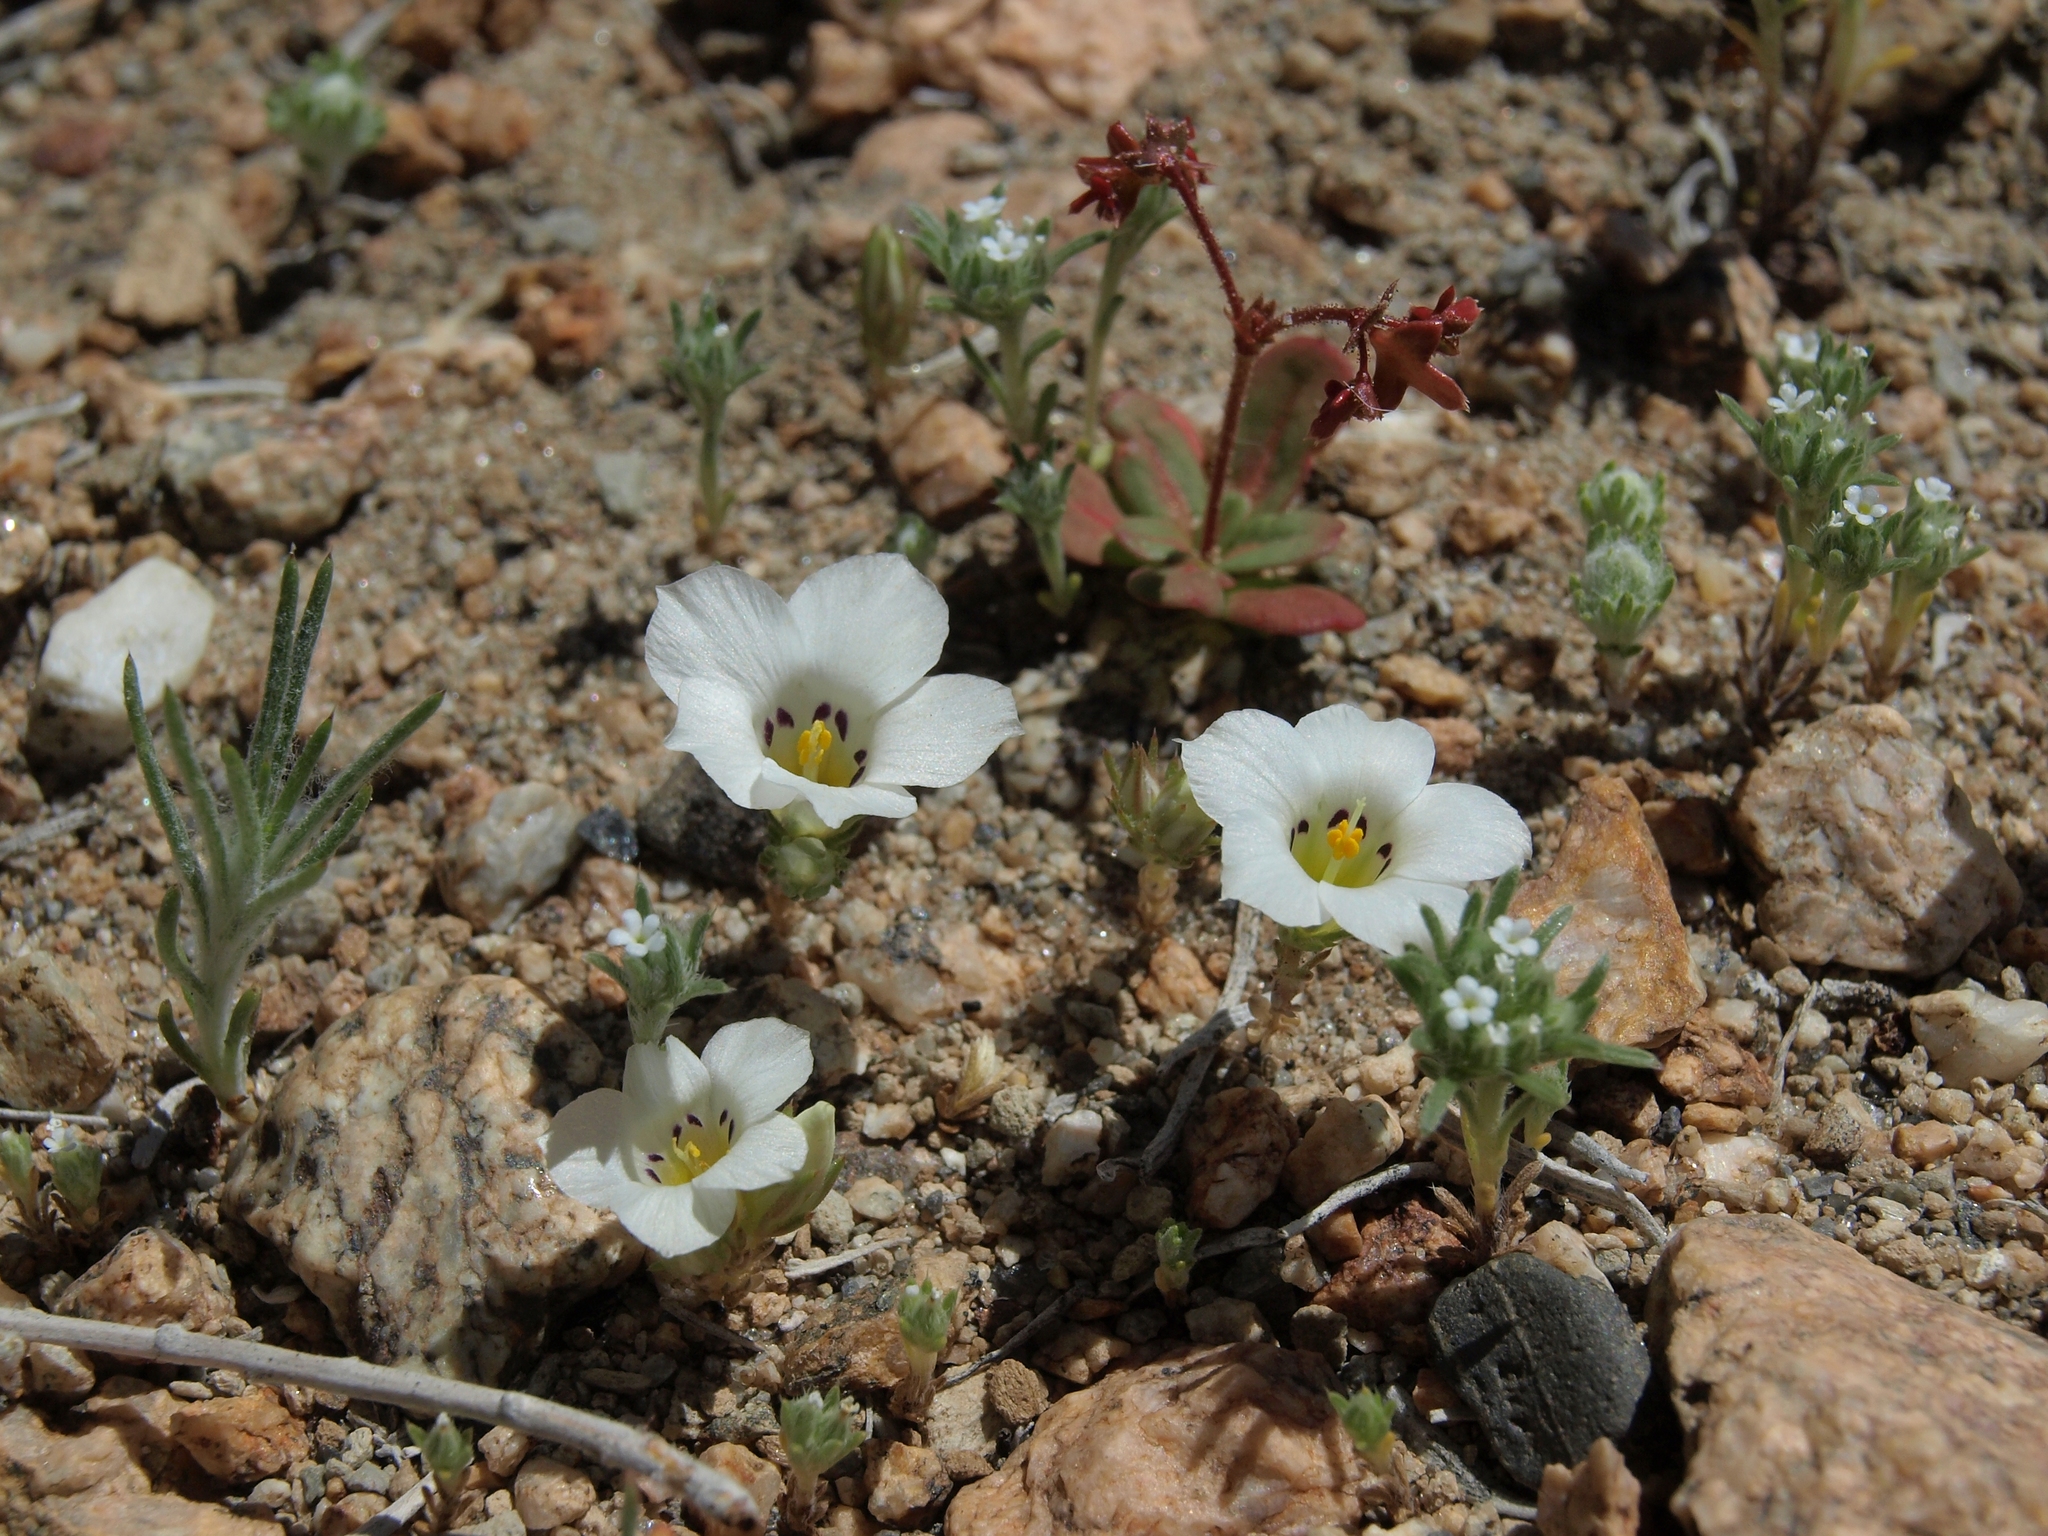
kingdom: Plantae
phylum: Tracheophyta
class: Magnoliopsida
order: Ericales
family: Polemoniaceae
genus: Linanthus
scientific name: Linanthus parryae
